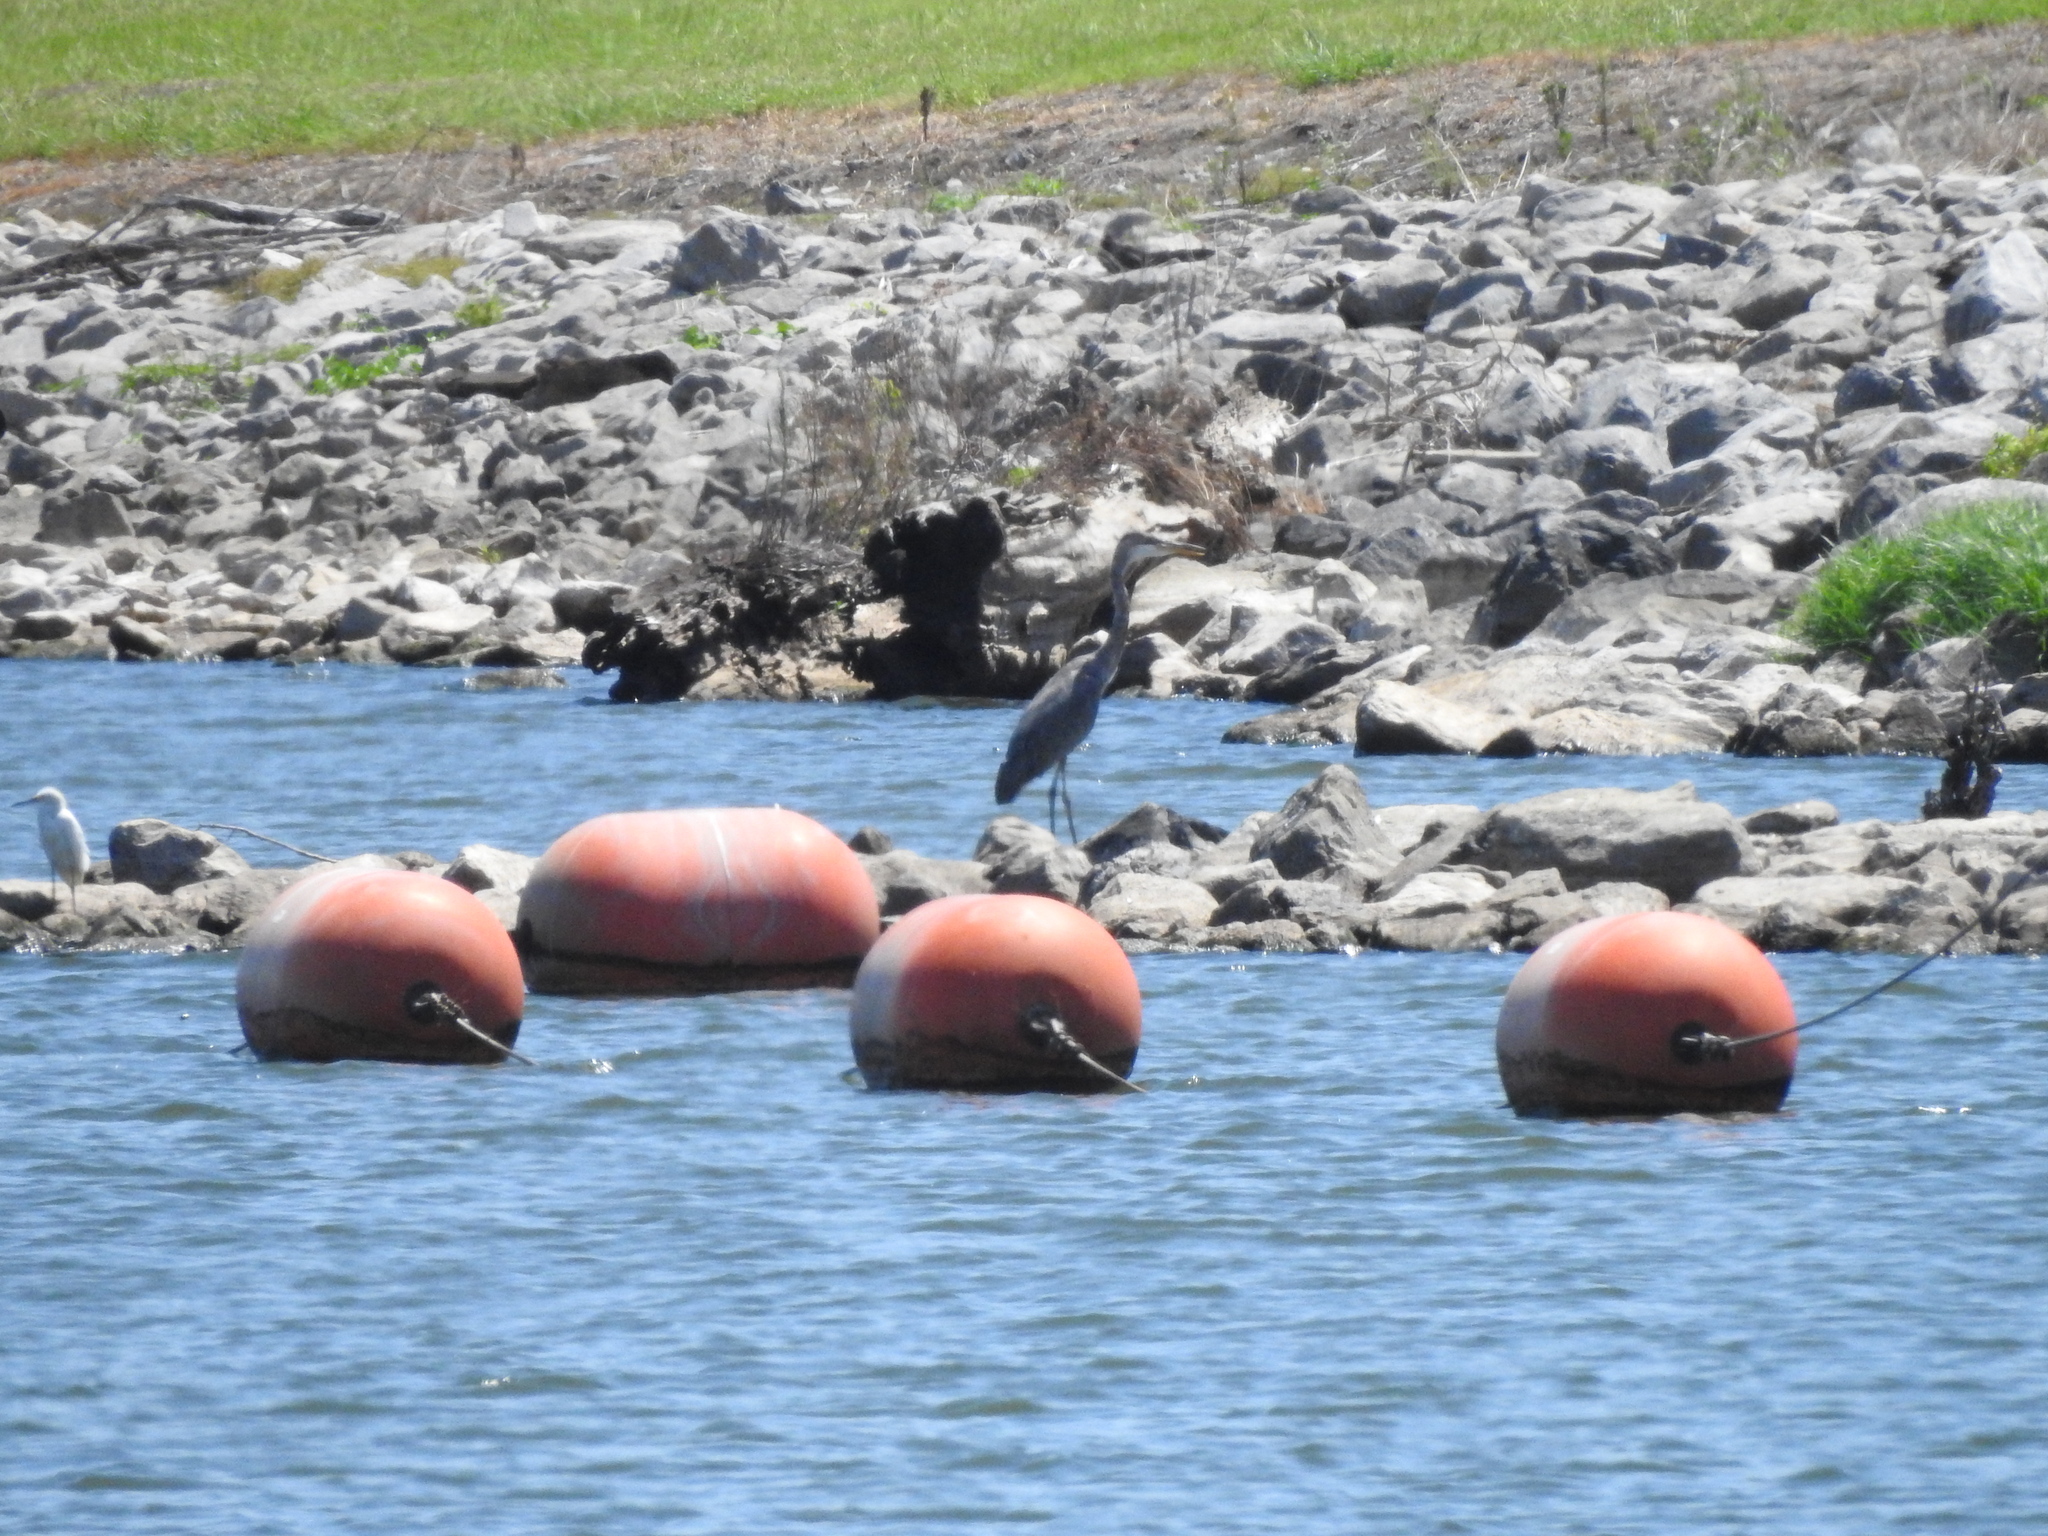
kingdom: Animalia
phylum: Chordata
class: Aves
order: Pelecaniformes
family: Ardeidae
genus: Ardea
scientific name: Ardea herodias
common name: Great blue heron
